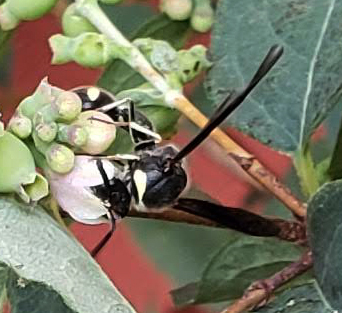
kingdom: Animalia
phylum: Arthropoda
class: Insecta
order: Hymenoptera
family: Vespidae
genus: Eumenes
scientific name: Eumenes fraternus
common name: Fraternal potter wasp
